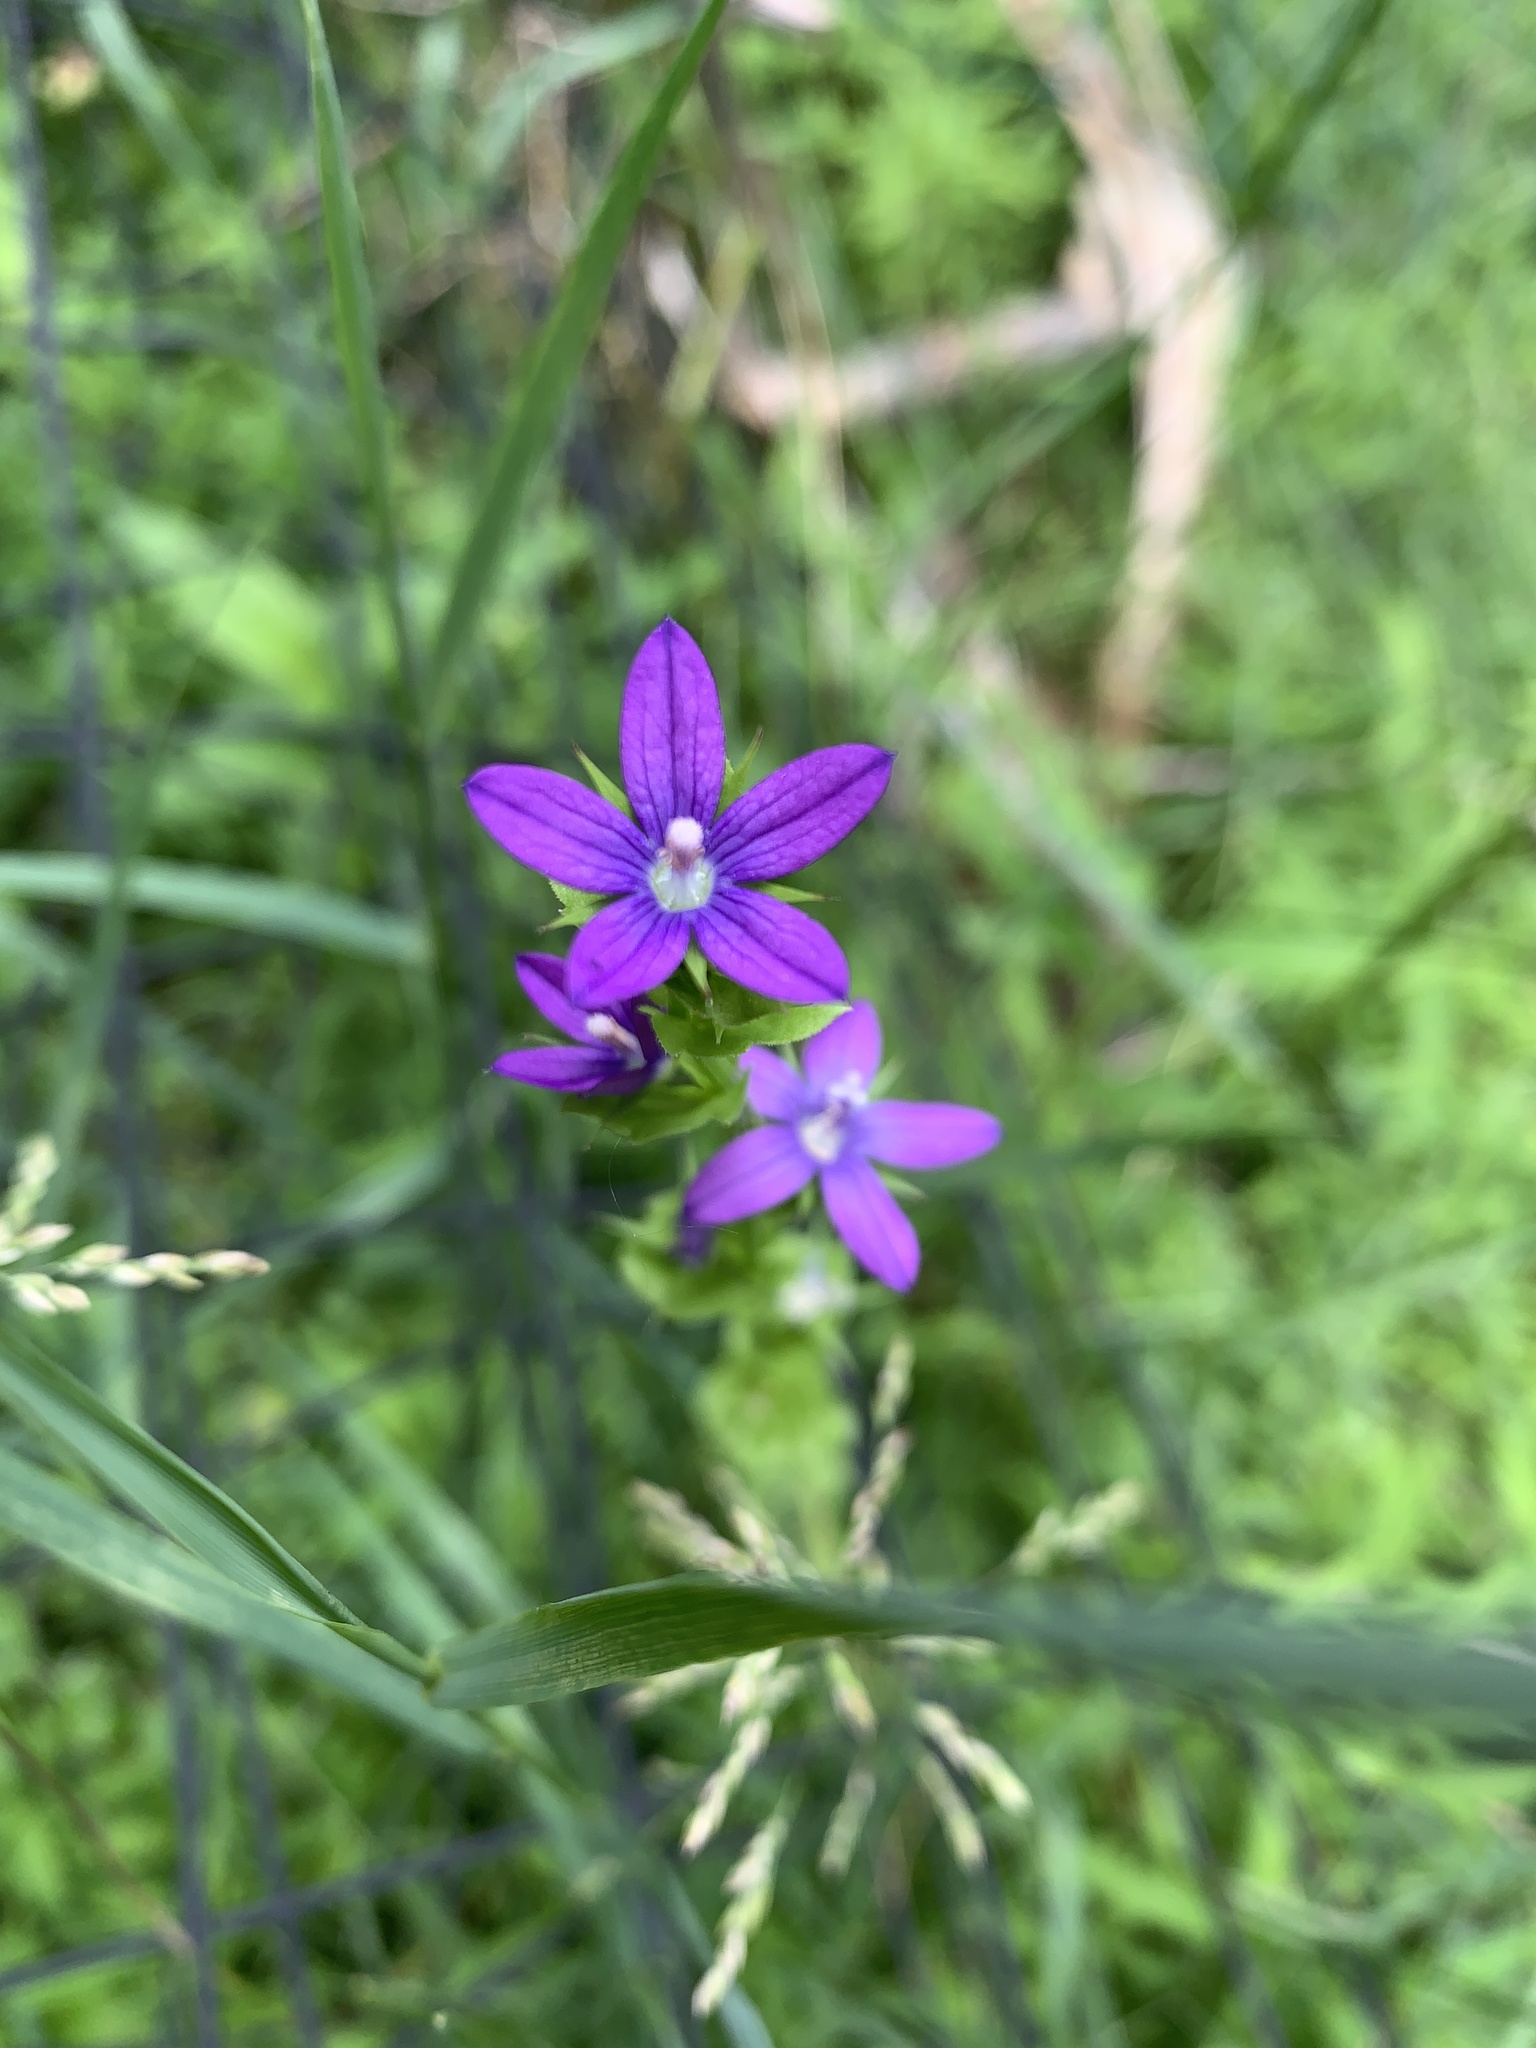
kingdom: Plantae
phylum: Tracheophyta
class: Magnoliopsida
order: Asterales
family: Campanulaceae
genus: Triodanis
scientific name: Triodanis perfoliata
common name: Clasping venus' looking-glass
